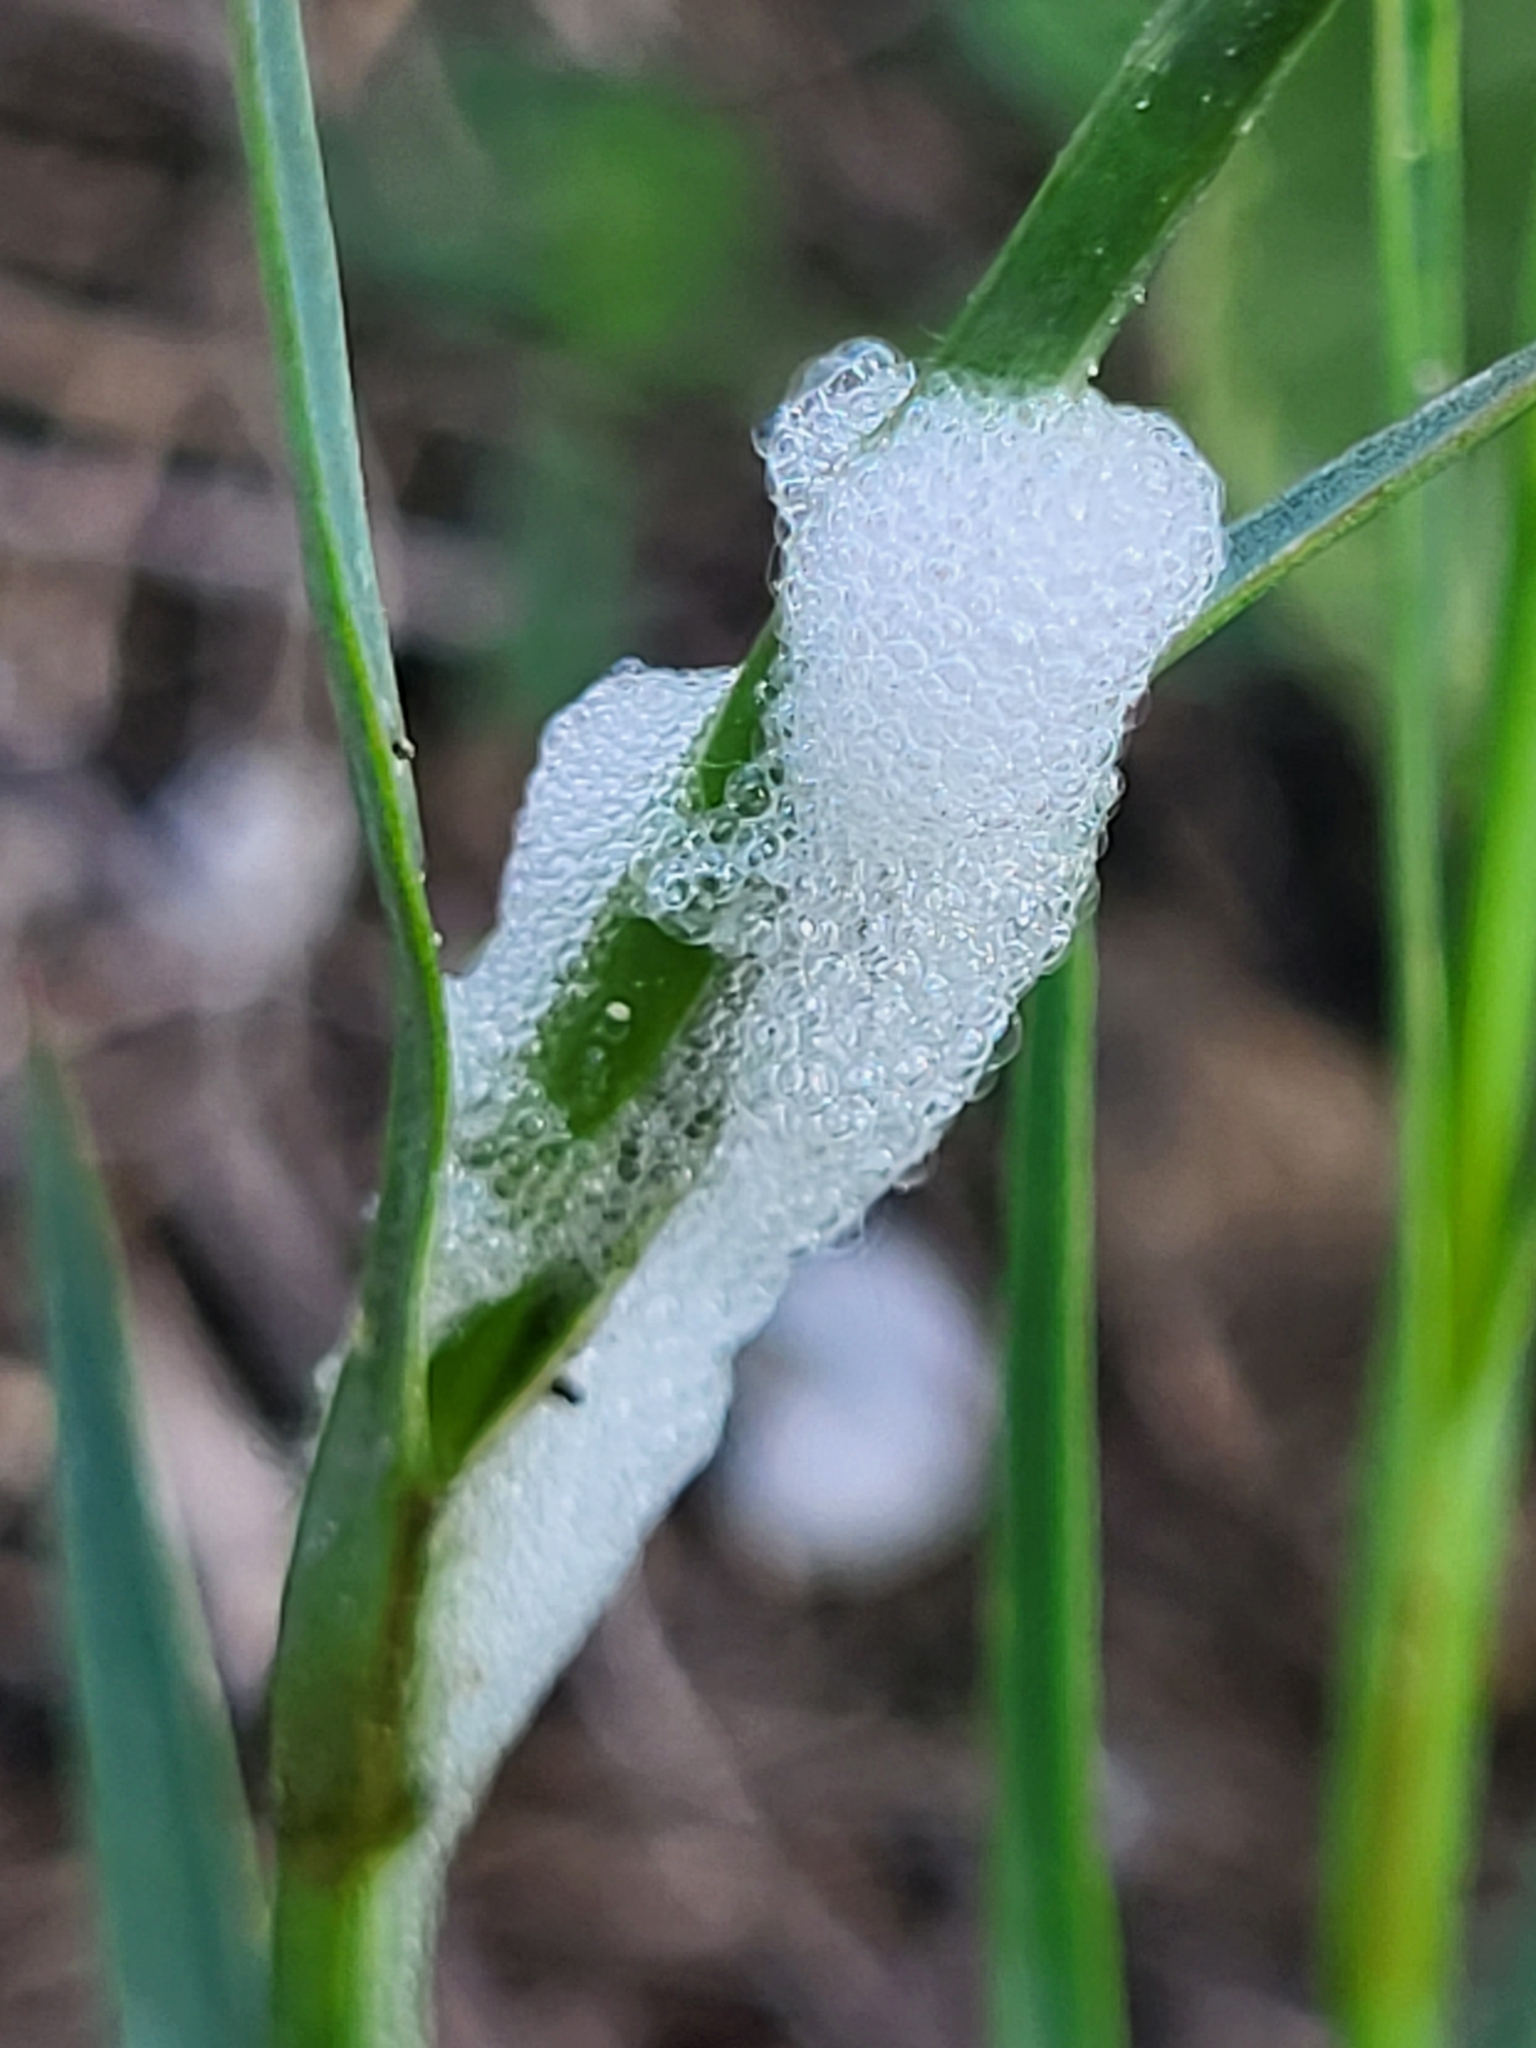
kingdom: Animalia
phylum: Arthropoda
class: Insecta
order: Hemiptera
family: Aphrophoridae
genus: Philaenus
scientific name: Philaenus spumarius
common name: Meadow spittlebug
